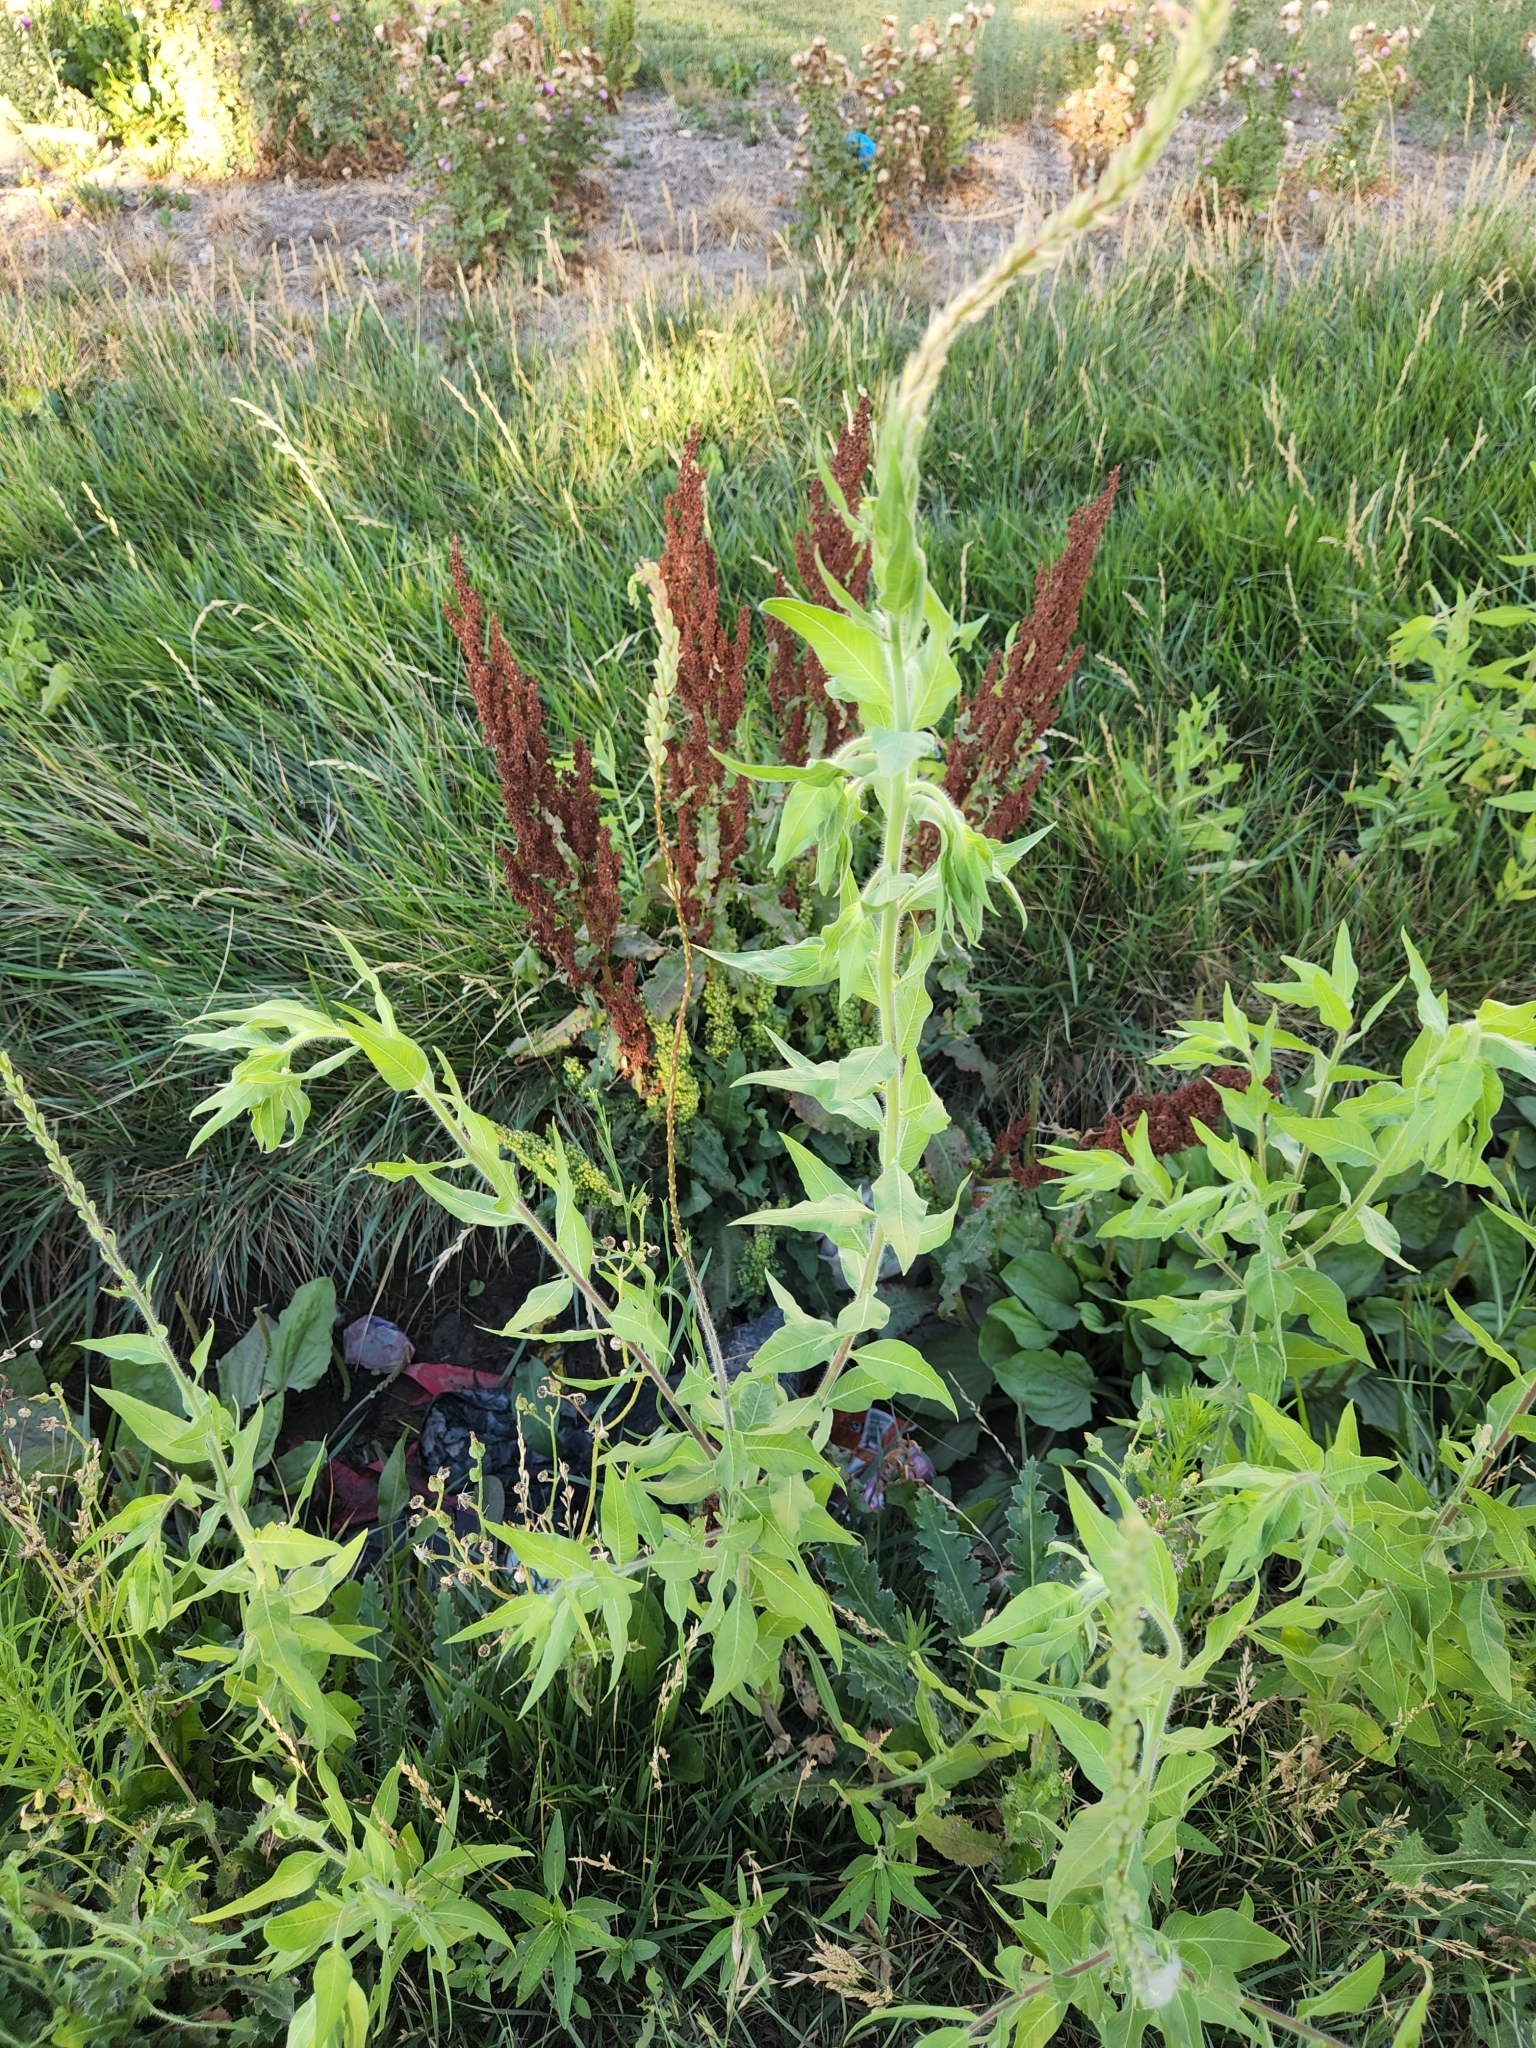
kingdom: Plantae
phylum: Tracheophyta
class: Magnoliopsida
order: Myrtales
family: Onagraceae
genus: Oenothera
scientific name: Oenothera curtiflora
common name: Velvetweed
